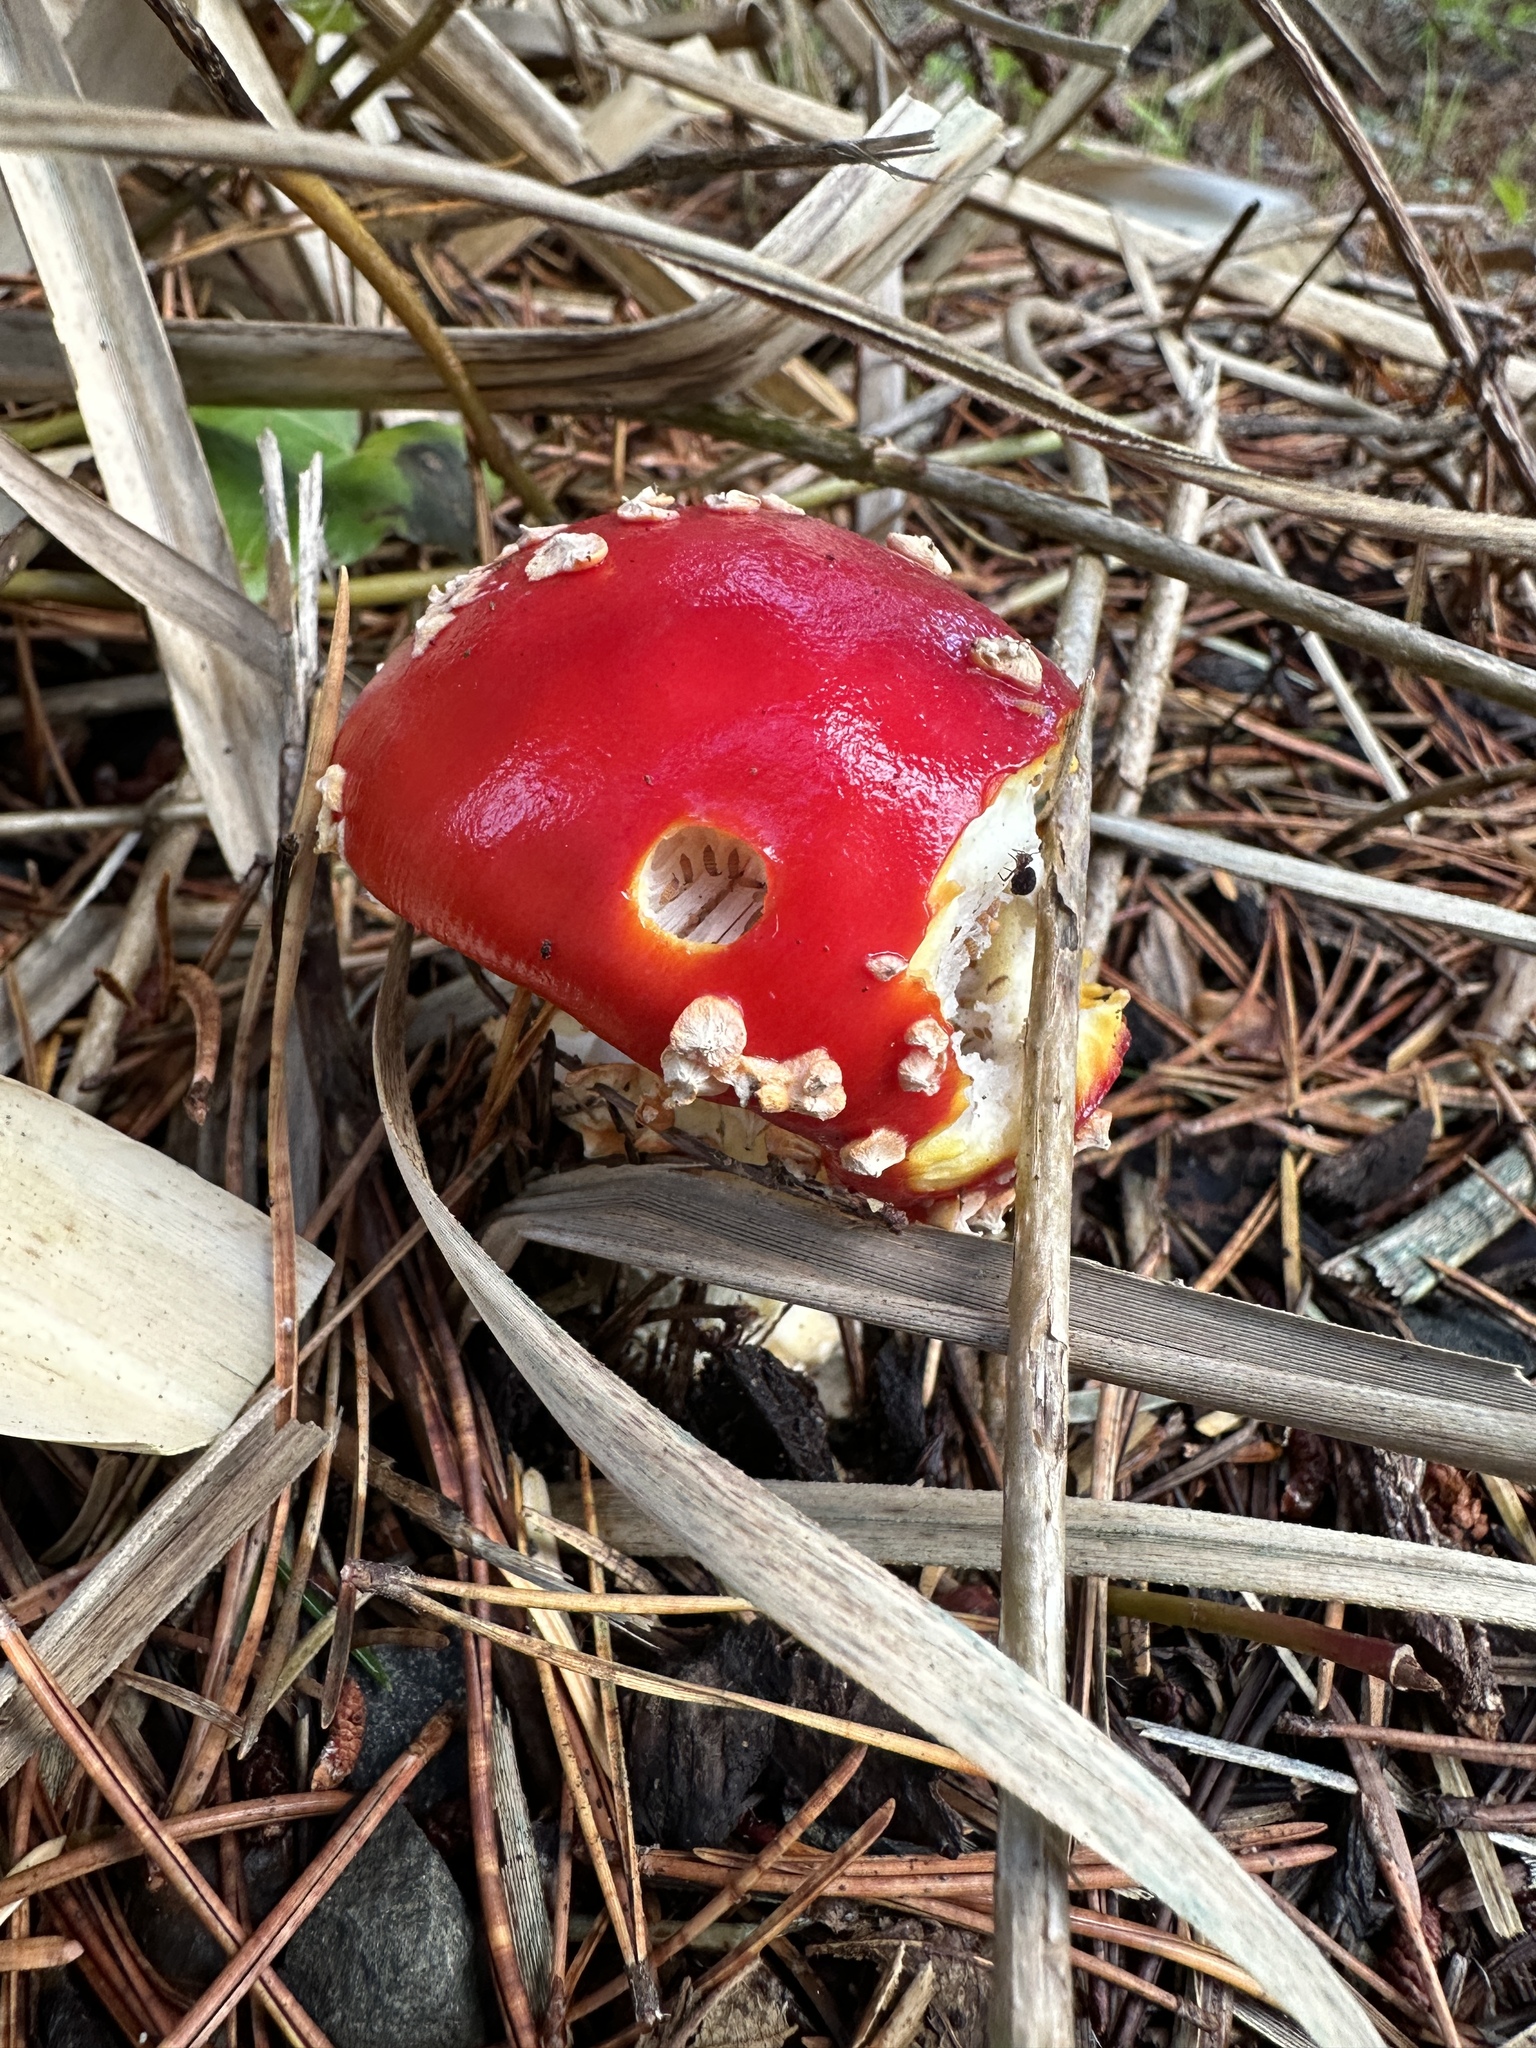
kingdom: Fungi
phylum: Basidiomycota
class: Agaricomycetes
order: Agaricales
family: Amanitaceae
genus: Amanita
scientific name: Amanita muscaria
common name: Fly agaric
